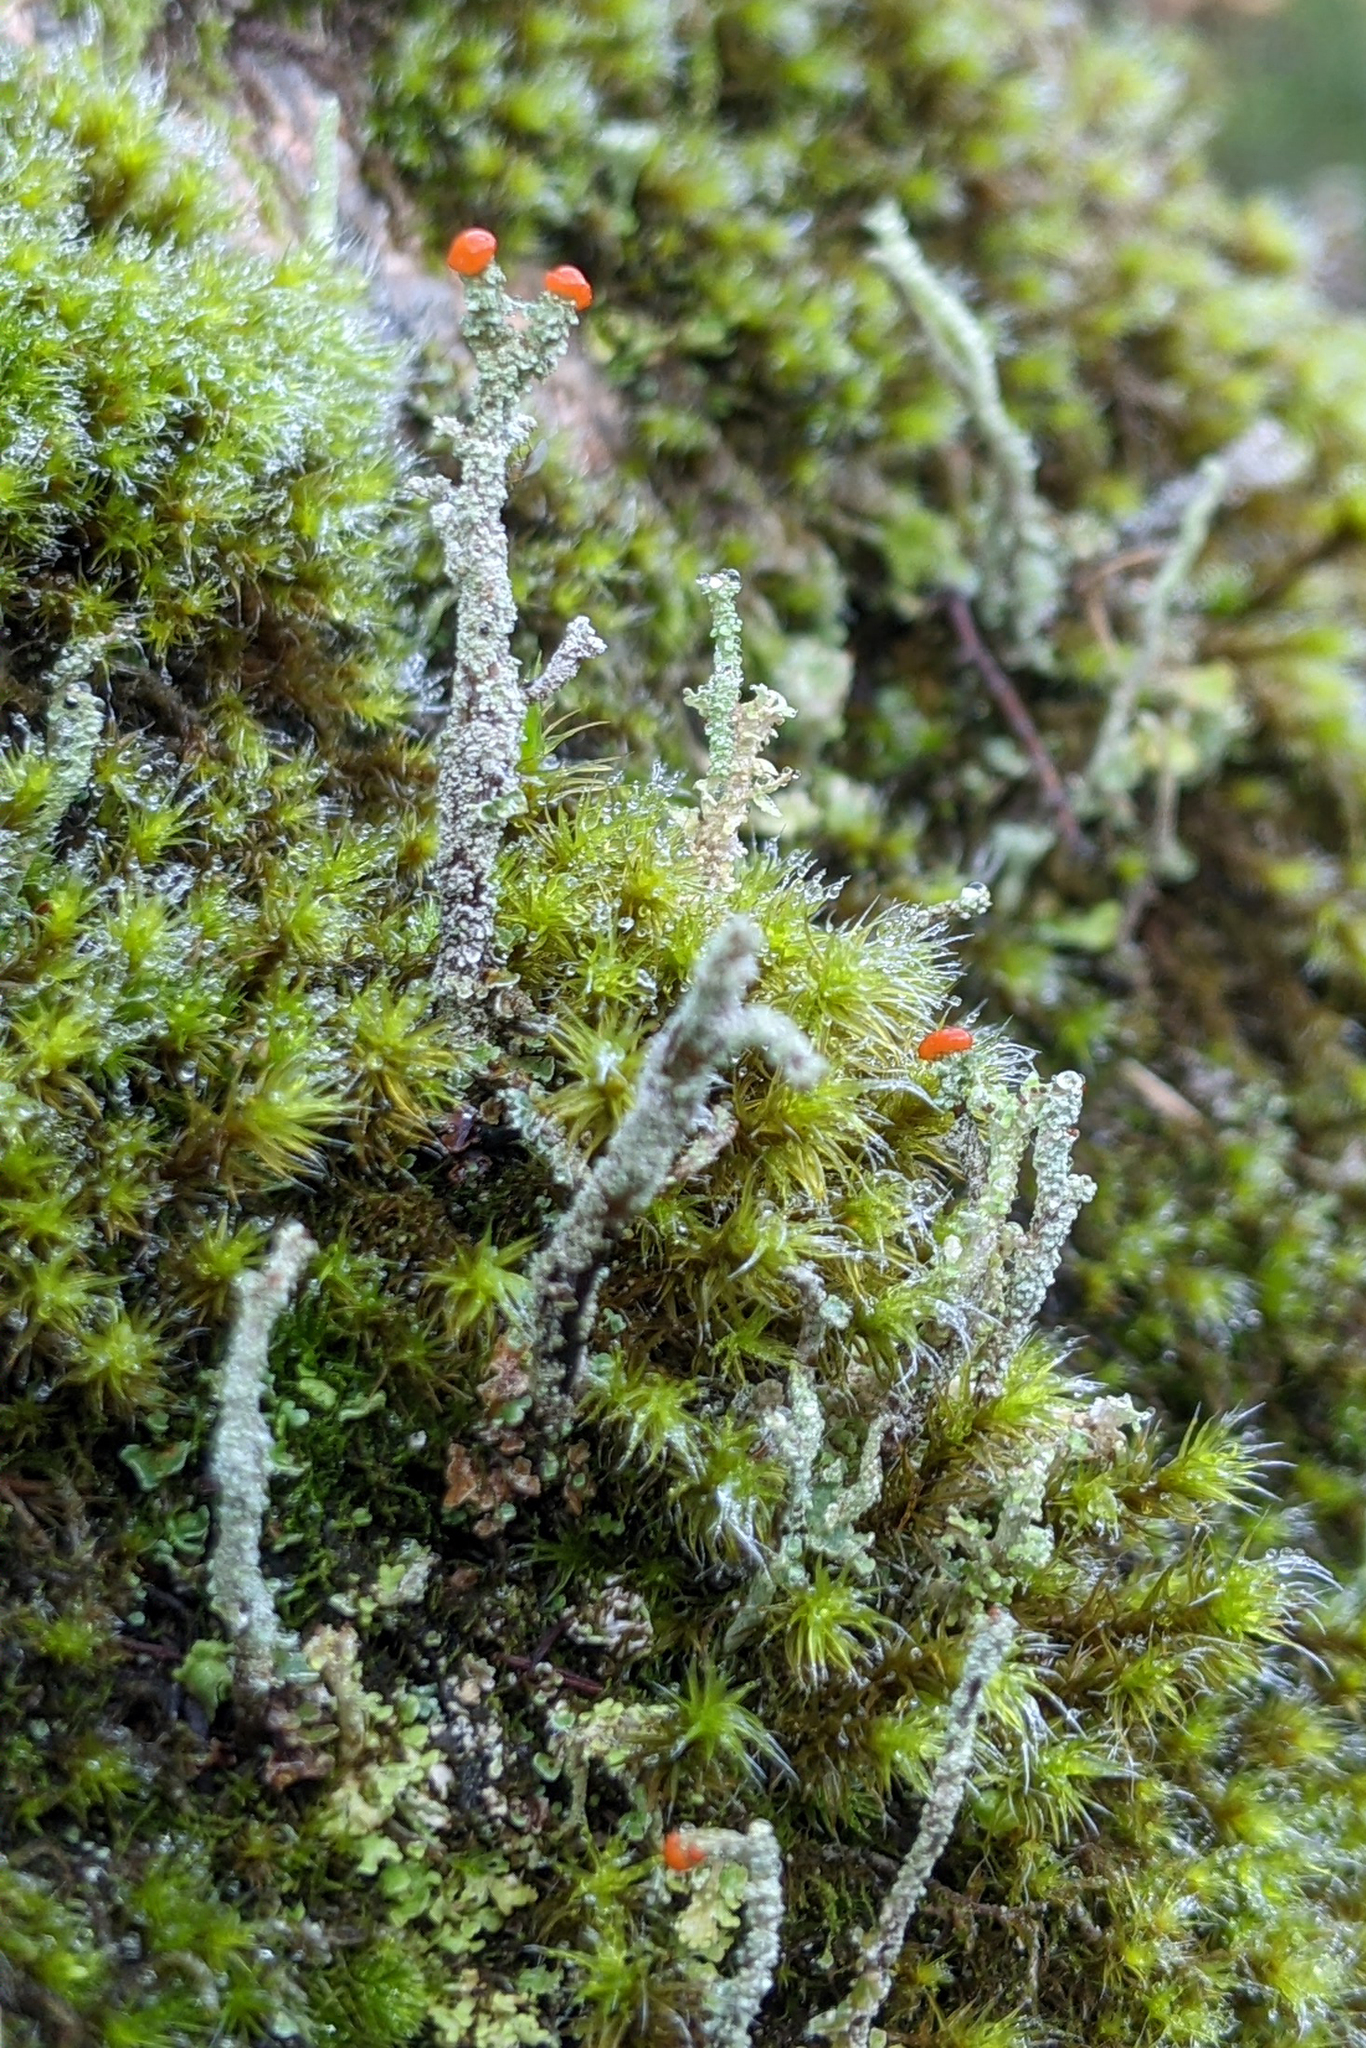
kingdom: Fungi
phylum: Ascomycota
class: Lecanoromycetes
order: Lecanorales
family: Cladoniaceae
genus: Cladonia
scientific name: Cladonia floerkeana
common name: Gritty british soldiers lichen
